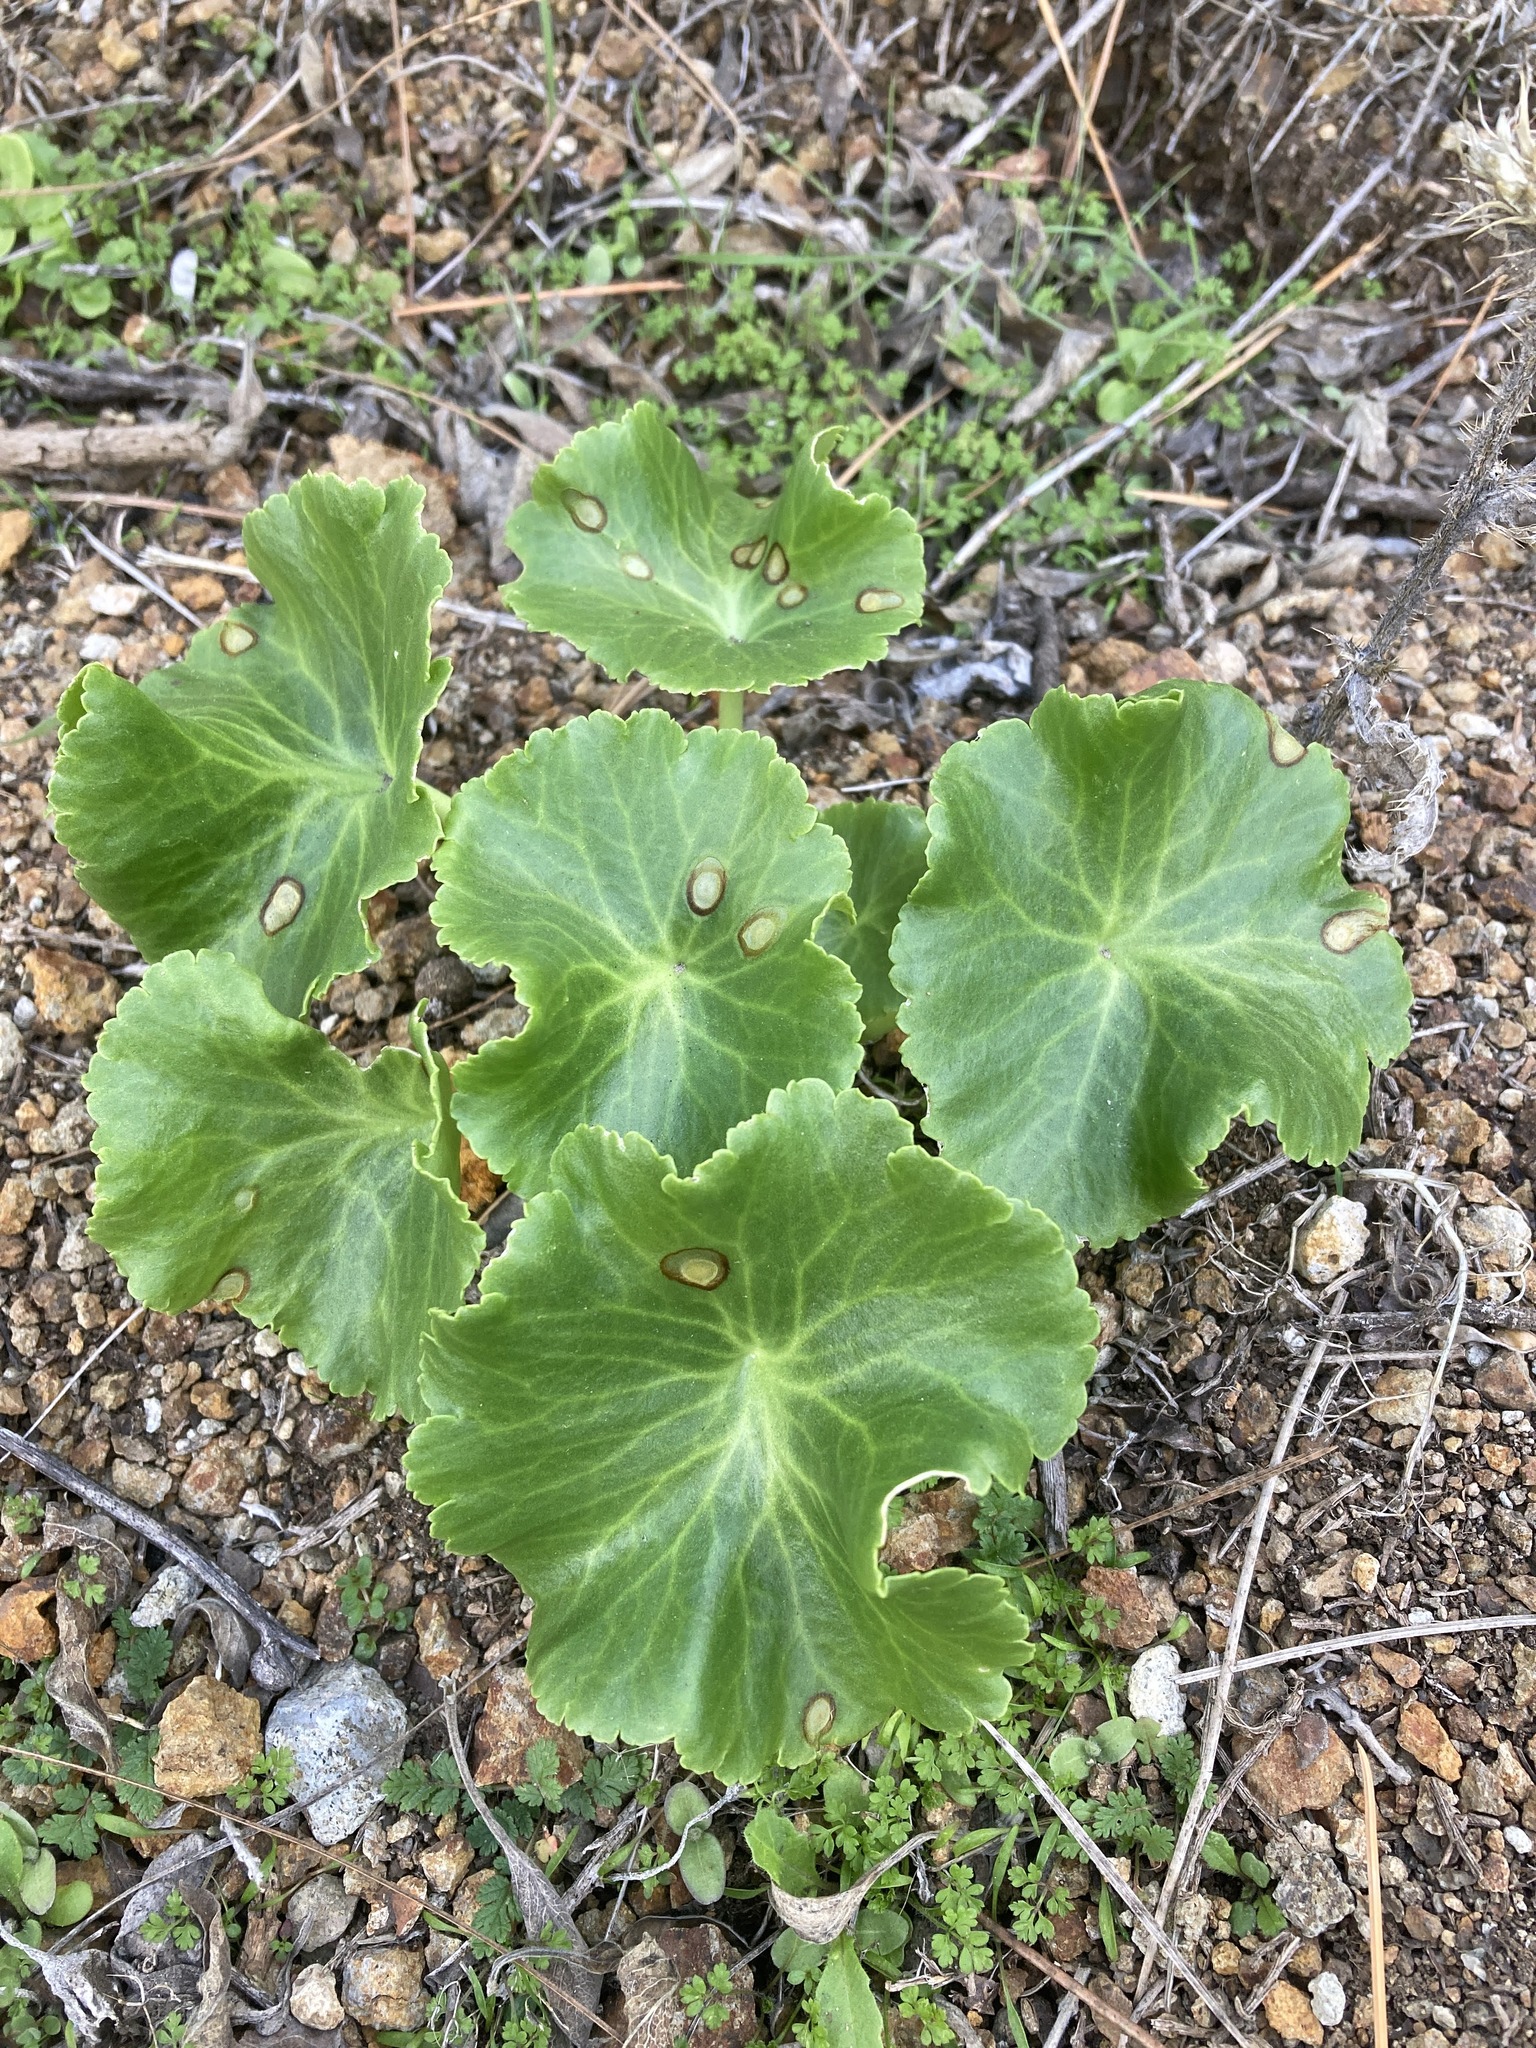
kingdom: Plantae
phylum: Tracheophyta
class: Magnoliopsida
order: Saxifragales
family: Crassulaceae
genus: Umbilicus
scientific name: Umbilicus horizontalis
